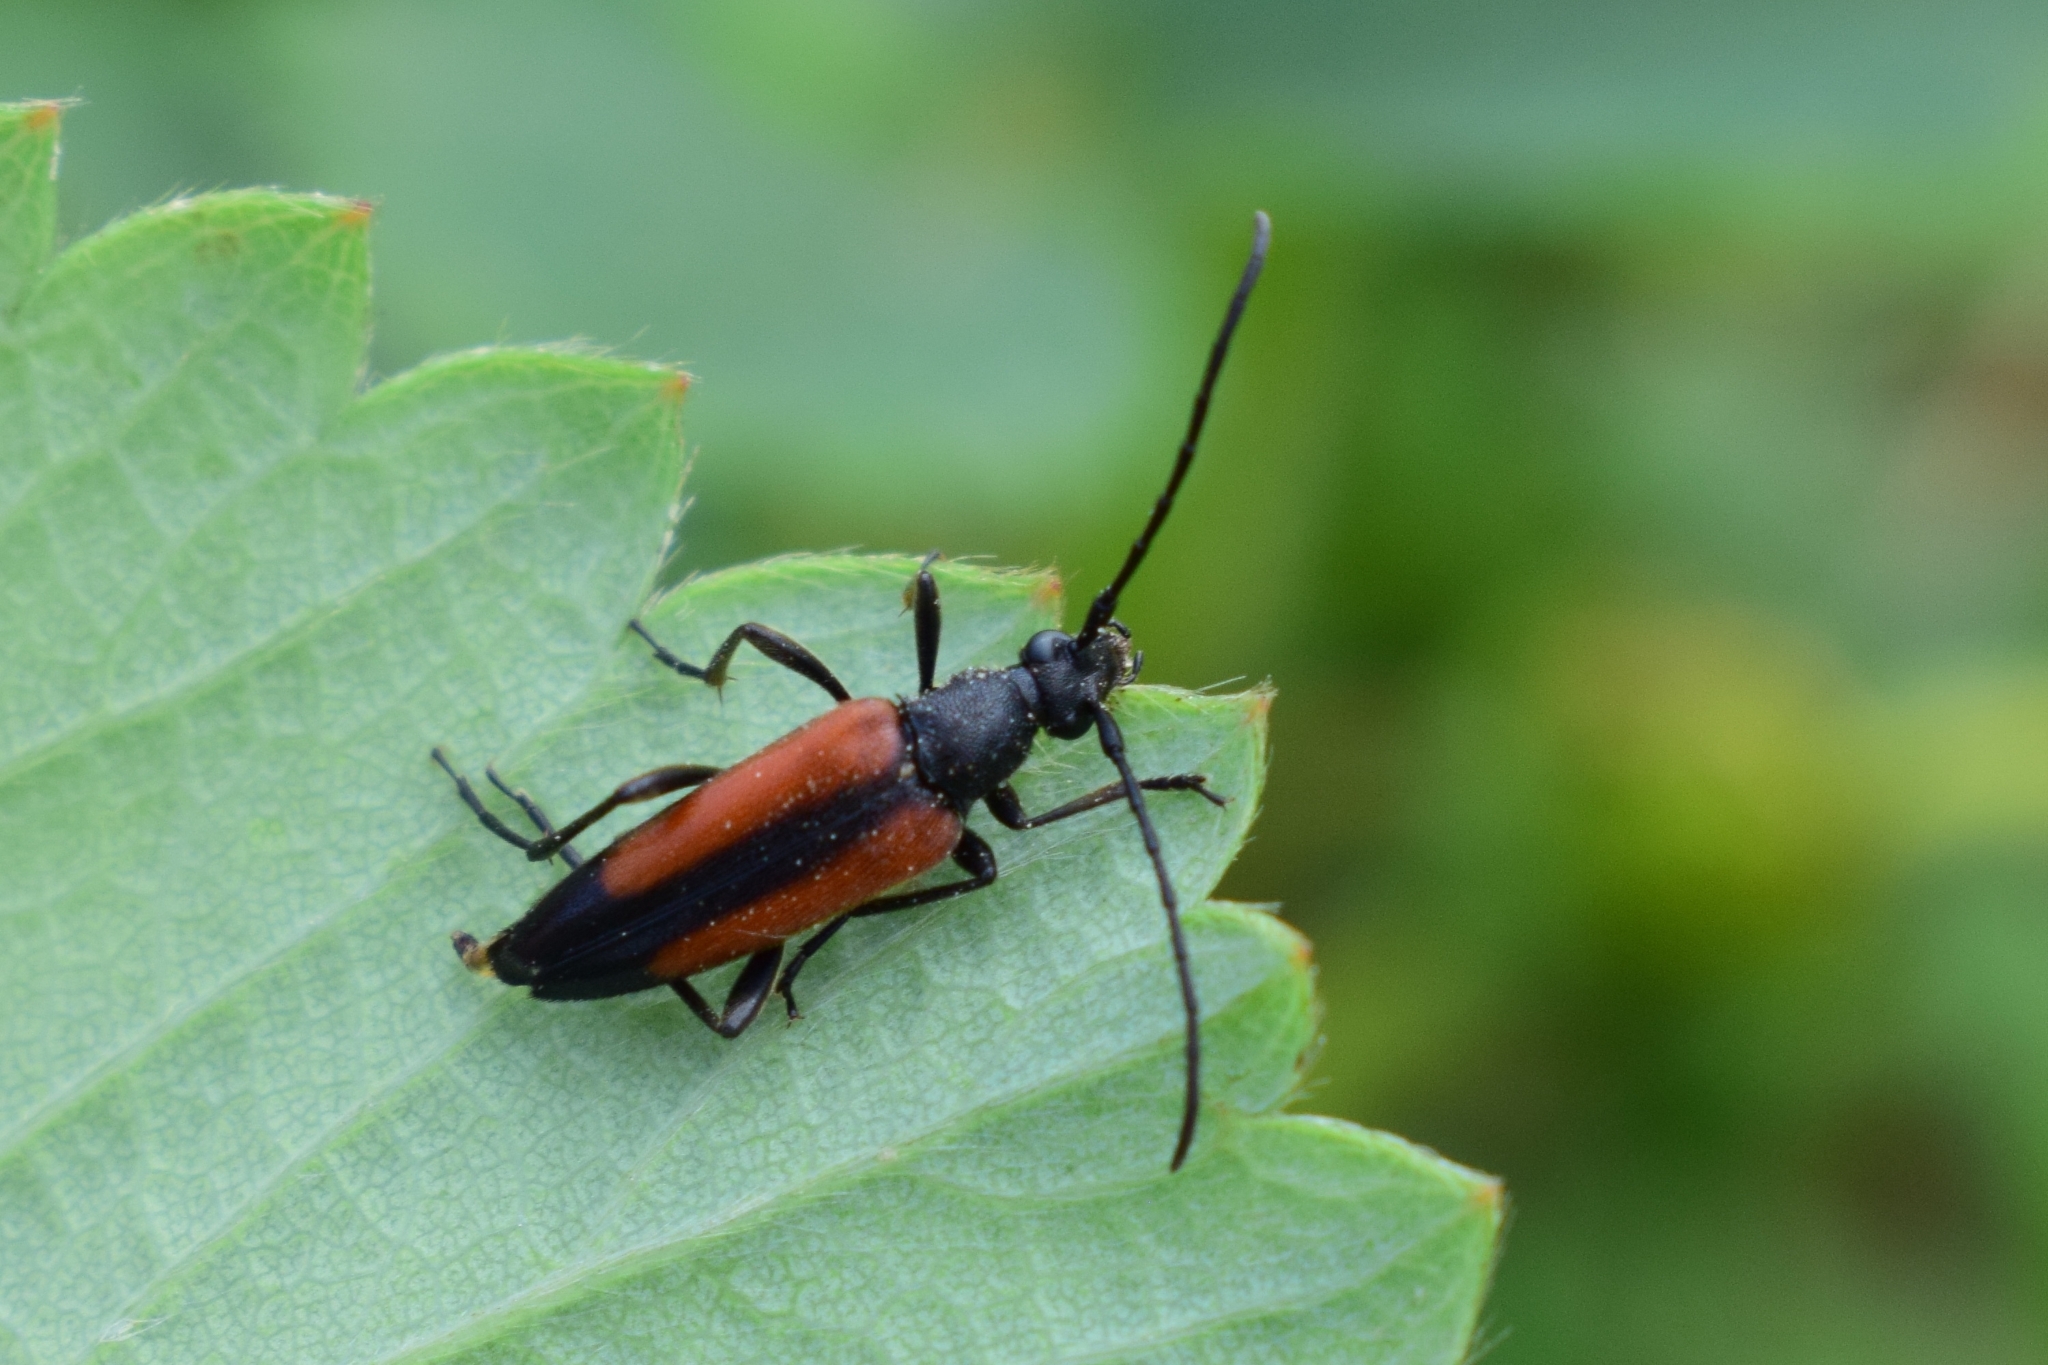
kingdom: Animalia
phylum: Arthropoda
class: Insecta
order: Coleoptera
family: Cerambycidae
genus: Stenurella
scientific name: Stenurella melanura
